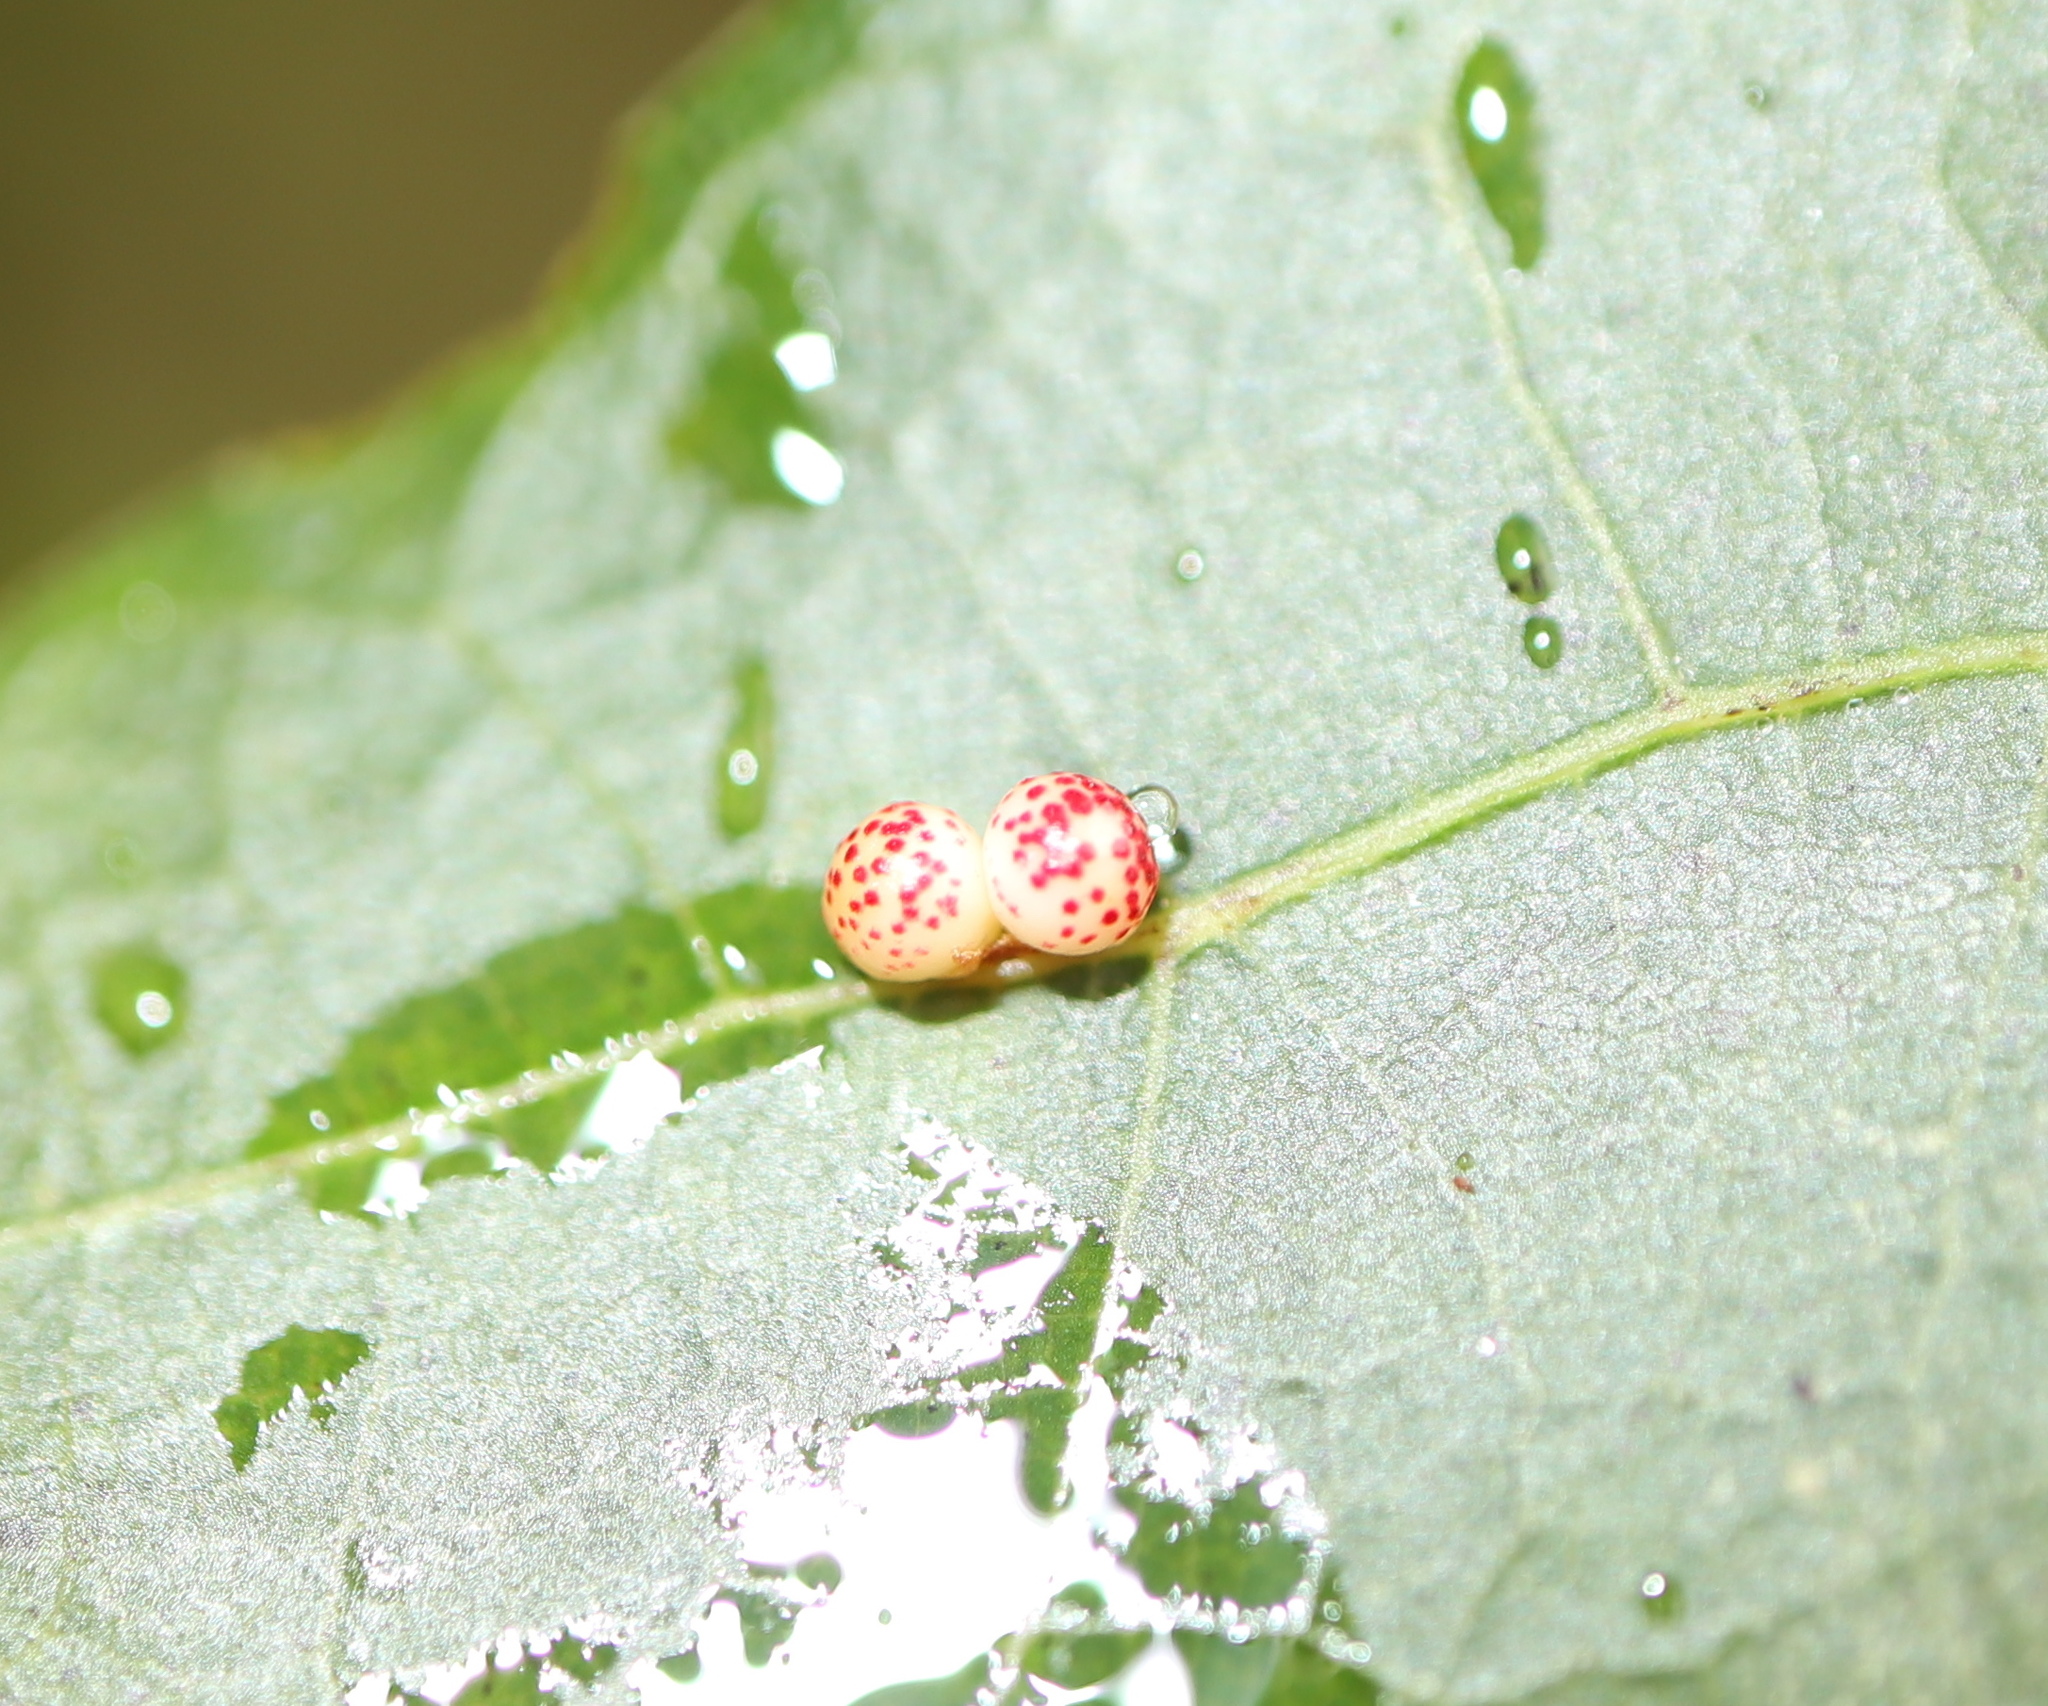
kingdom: Animalia
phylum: Arthropoda
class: Insecta
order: Hymenoptera
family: Cynipidae
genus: Zopheroteras
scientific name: Zopheroteras
